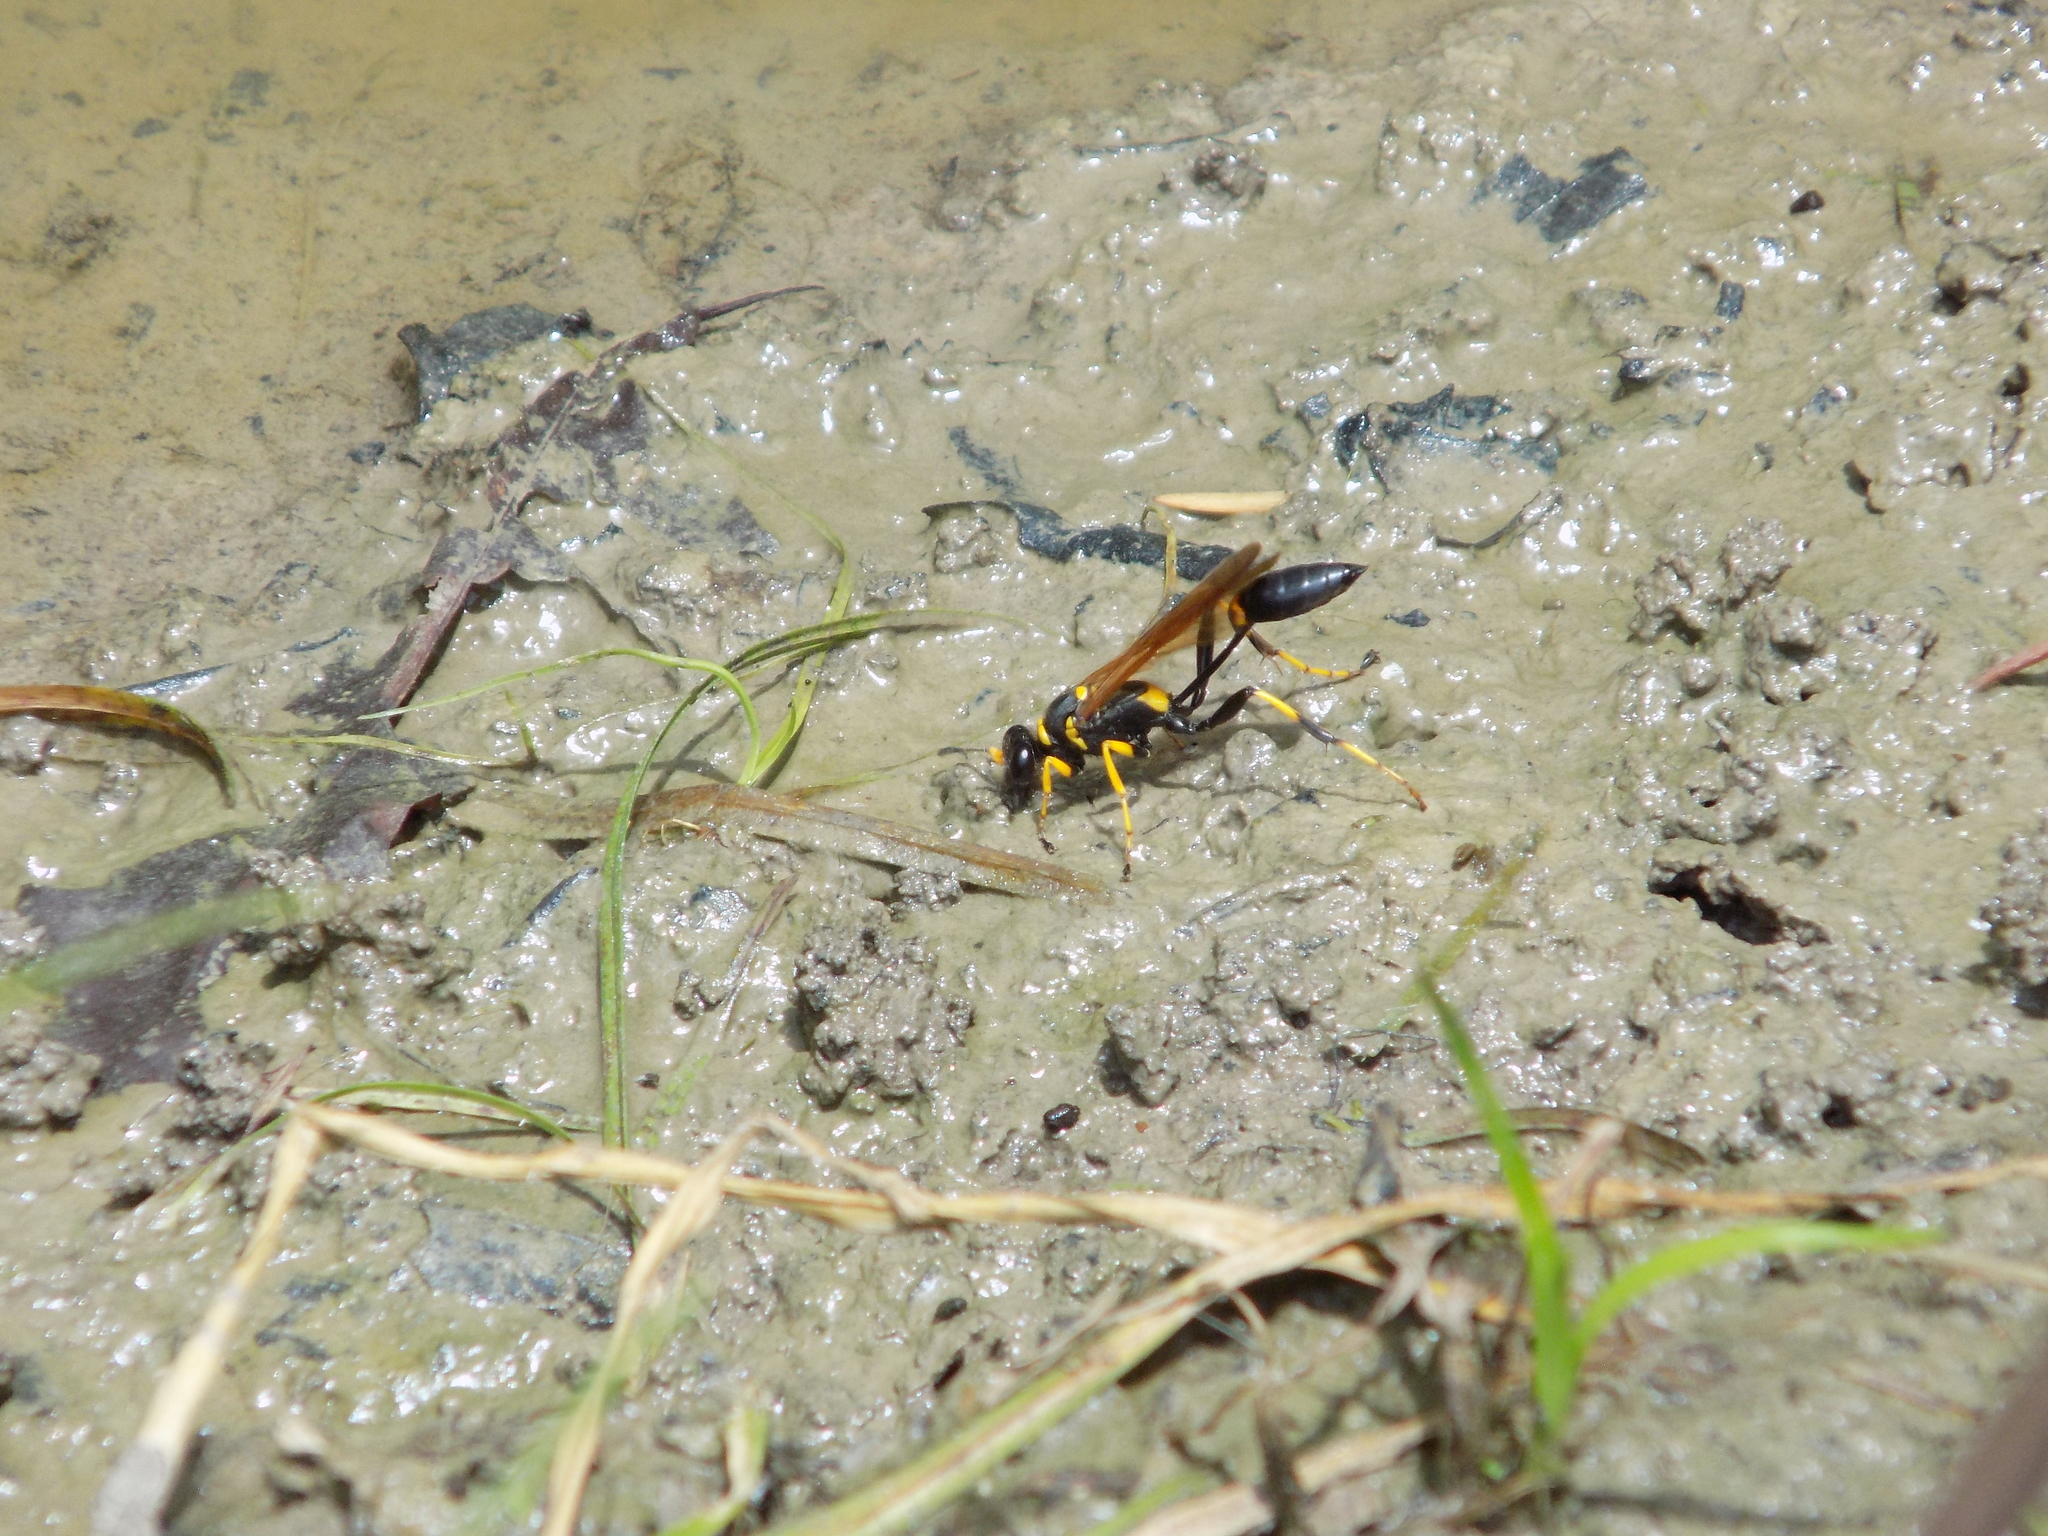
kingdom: Animalia
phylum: Arthropoda
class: Insecta
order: Hymenoptera
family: Sphecidae
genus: Sceliphron
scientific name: Sceliphron caementarium
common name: Mud dauber
